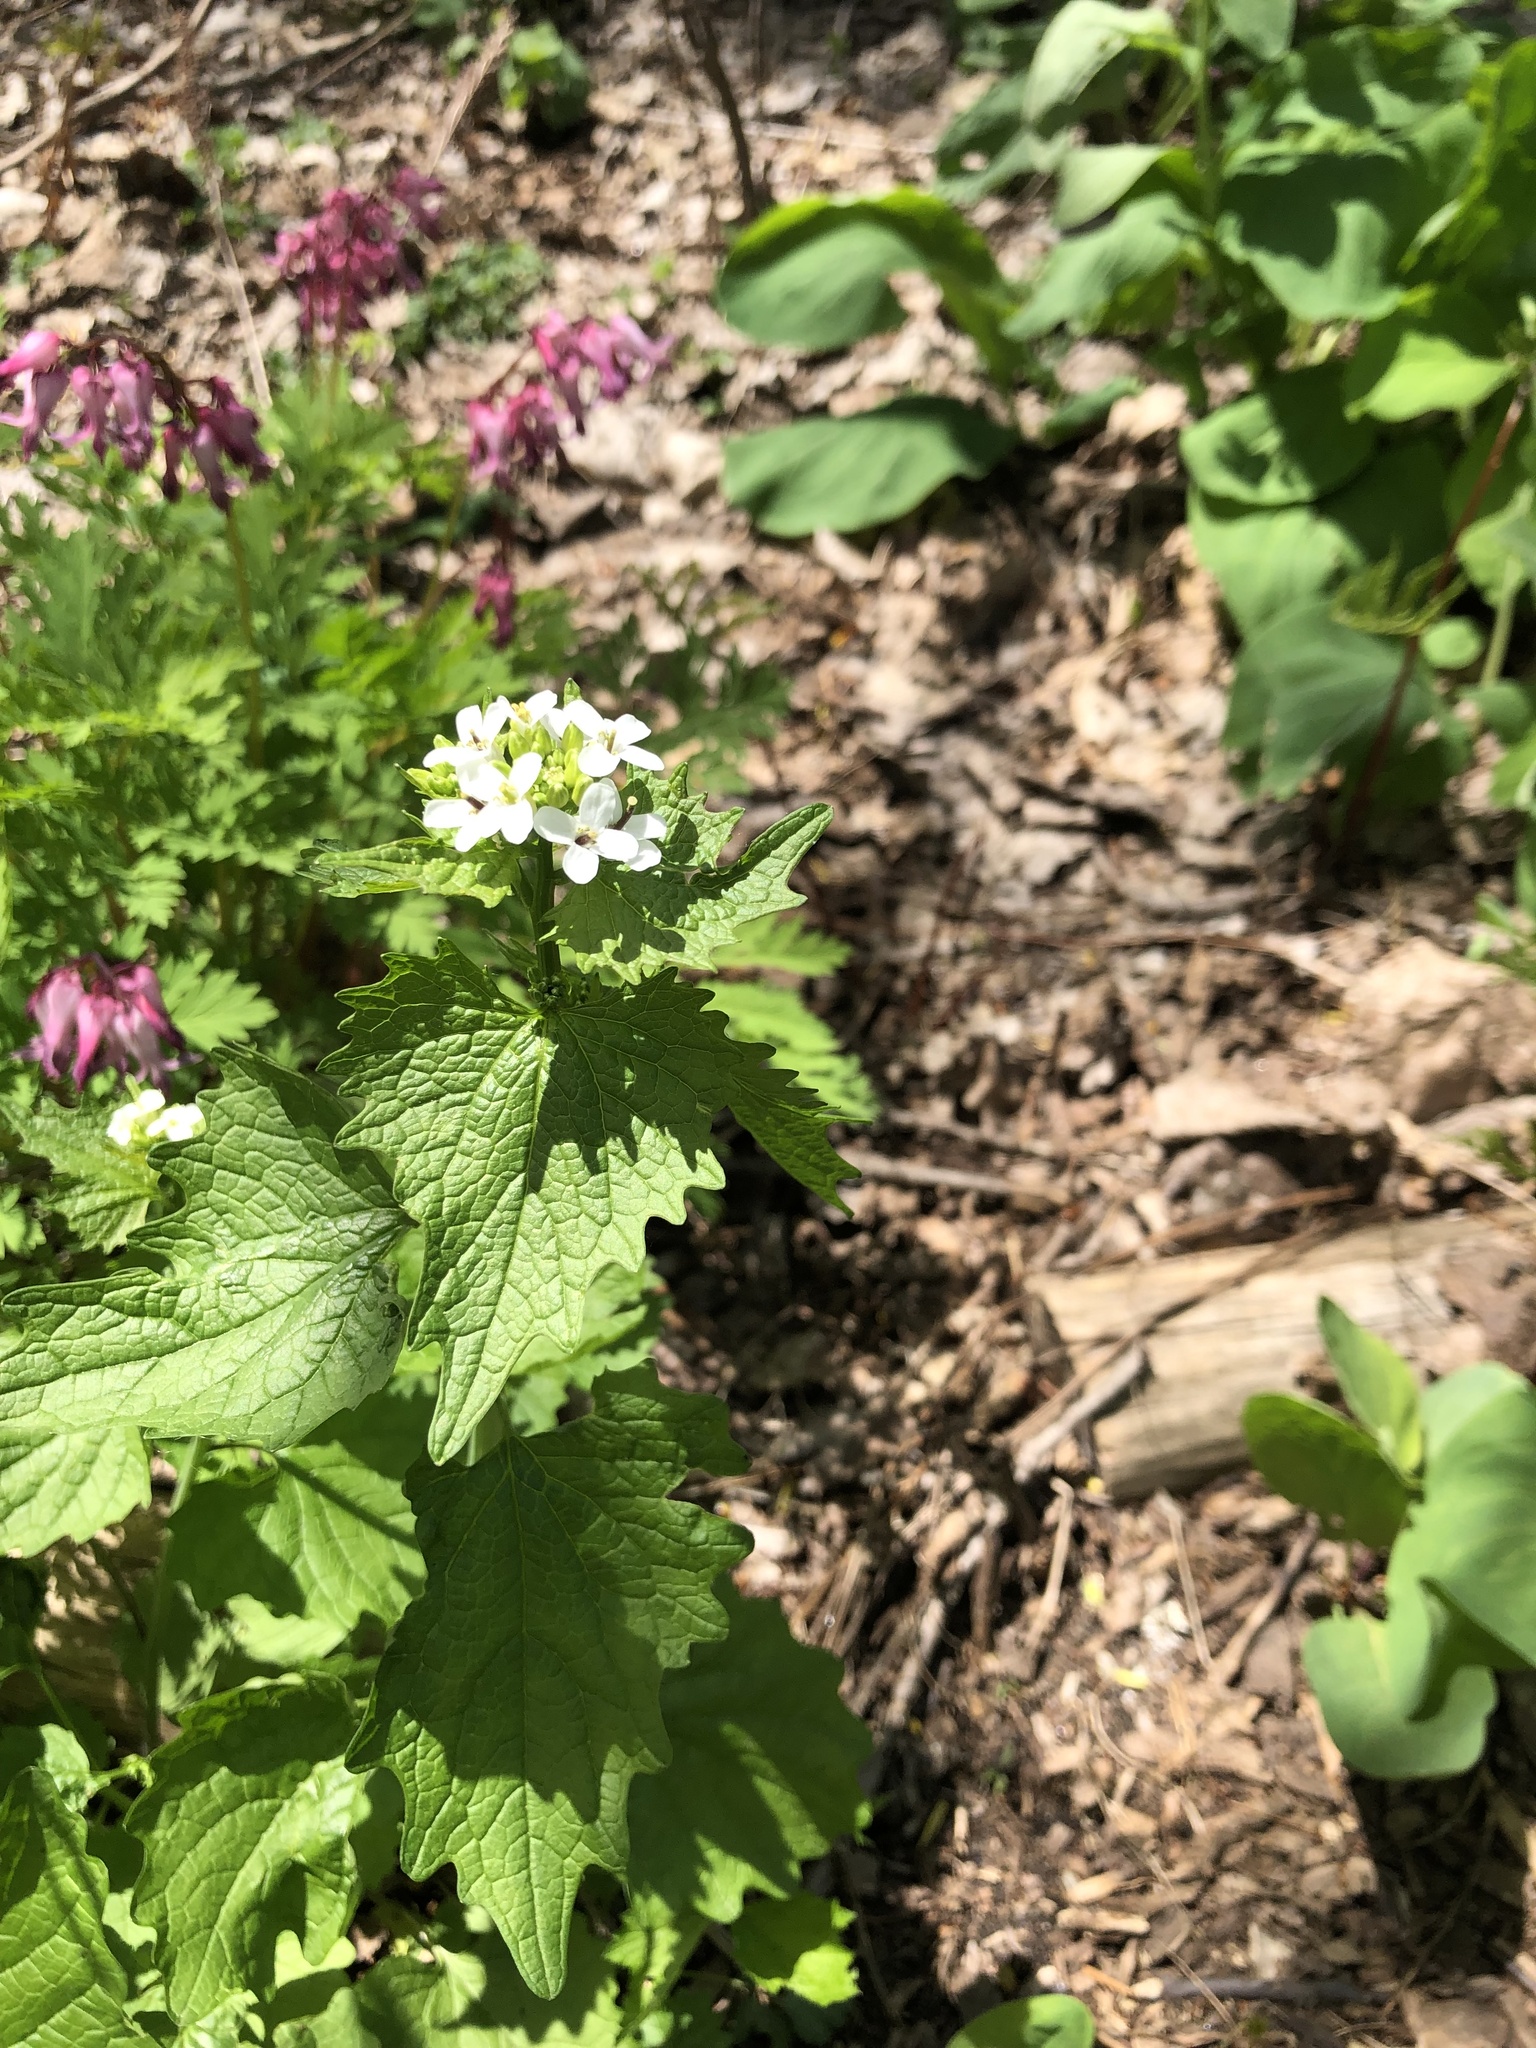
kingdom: Plantae
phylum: Tracheophyta
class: Magnoliopsida
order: Brassicales
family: Brassicaceae
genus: Alliaria
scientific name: Alliaria petiolata
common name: Garlic mustard
